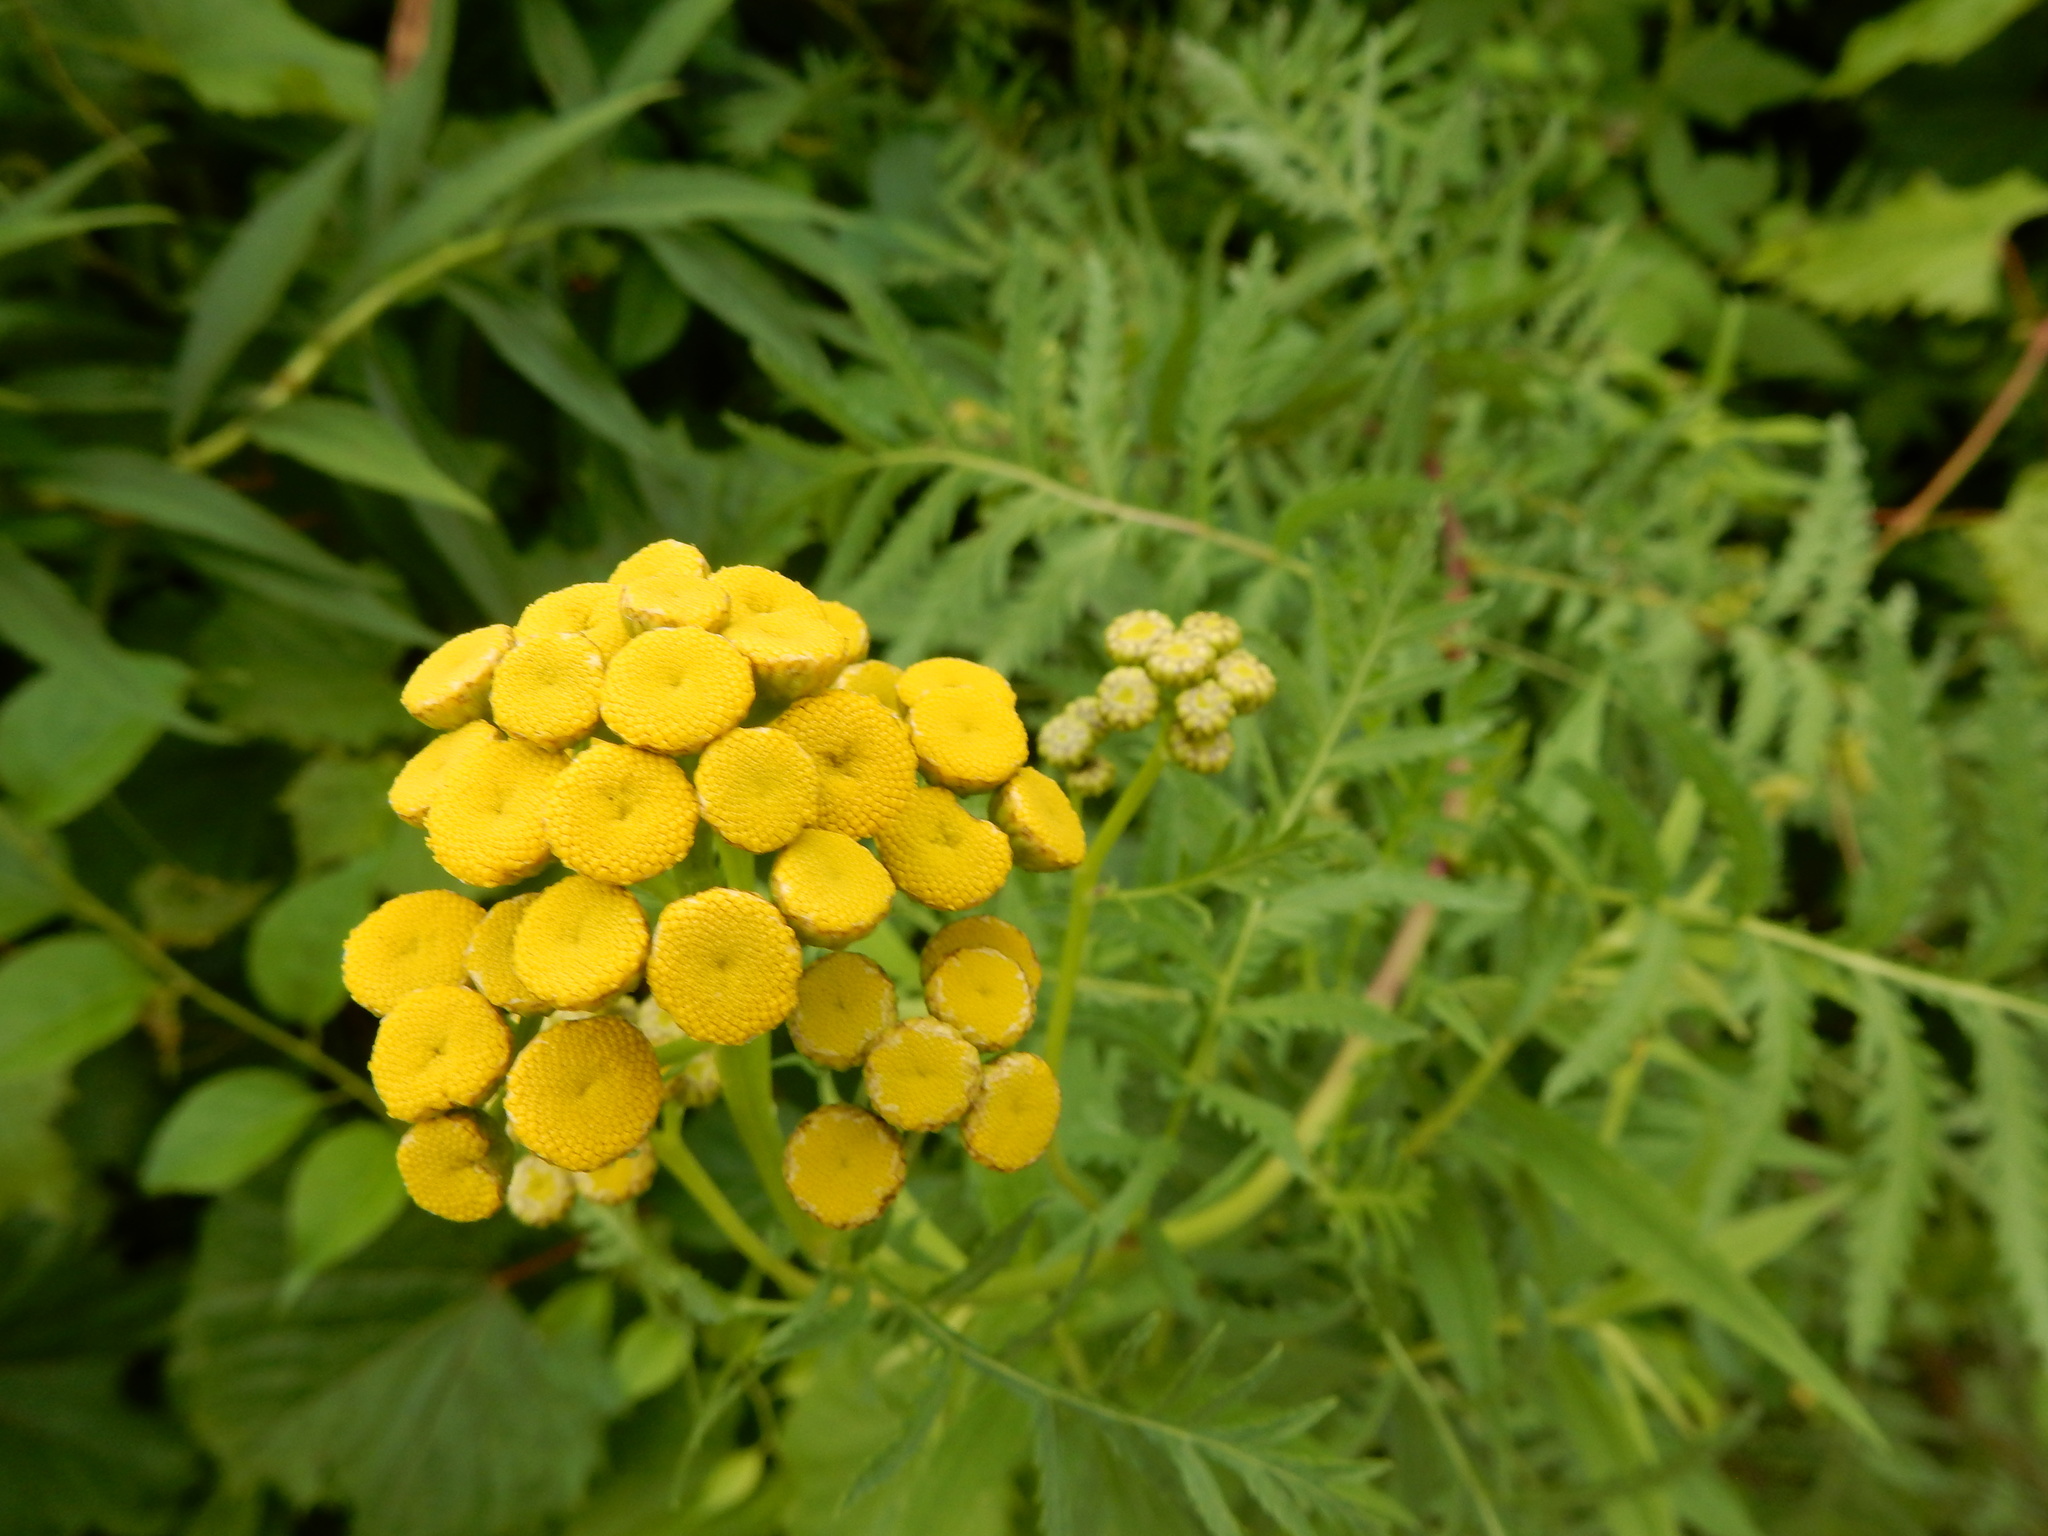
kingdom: Plantae
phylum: Tracheophyta
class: Magnoliopsida
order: Asterales
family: Asteraceae
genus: Tanacetum
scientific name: Tanacetum vulgare
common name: Common tansy
